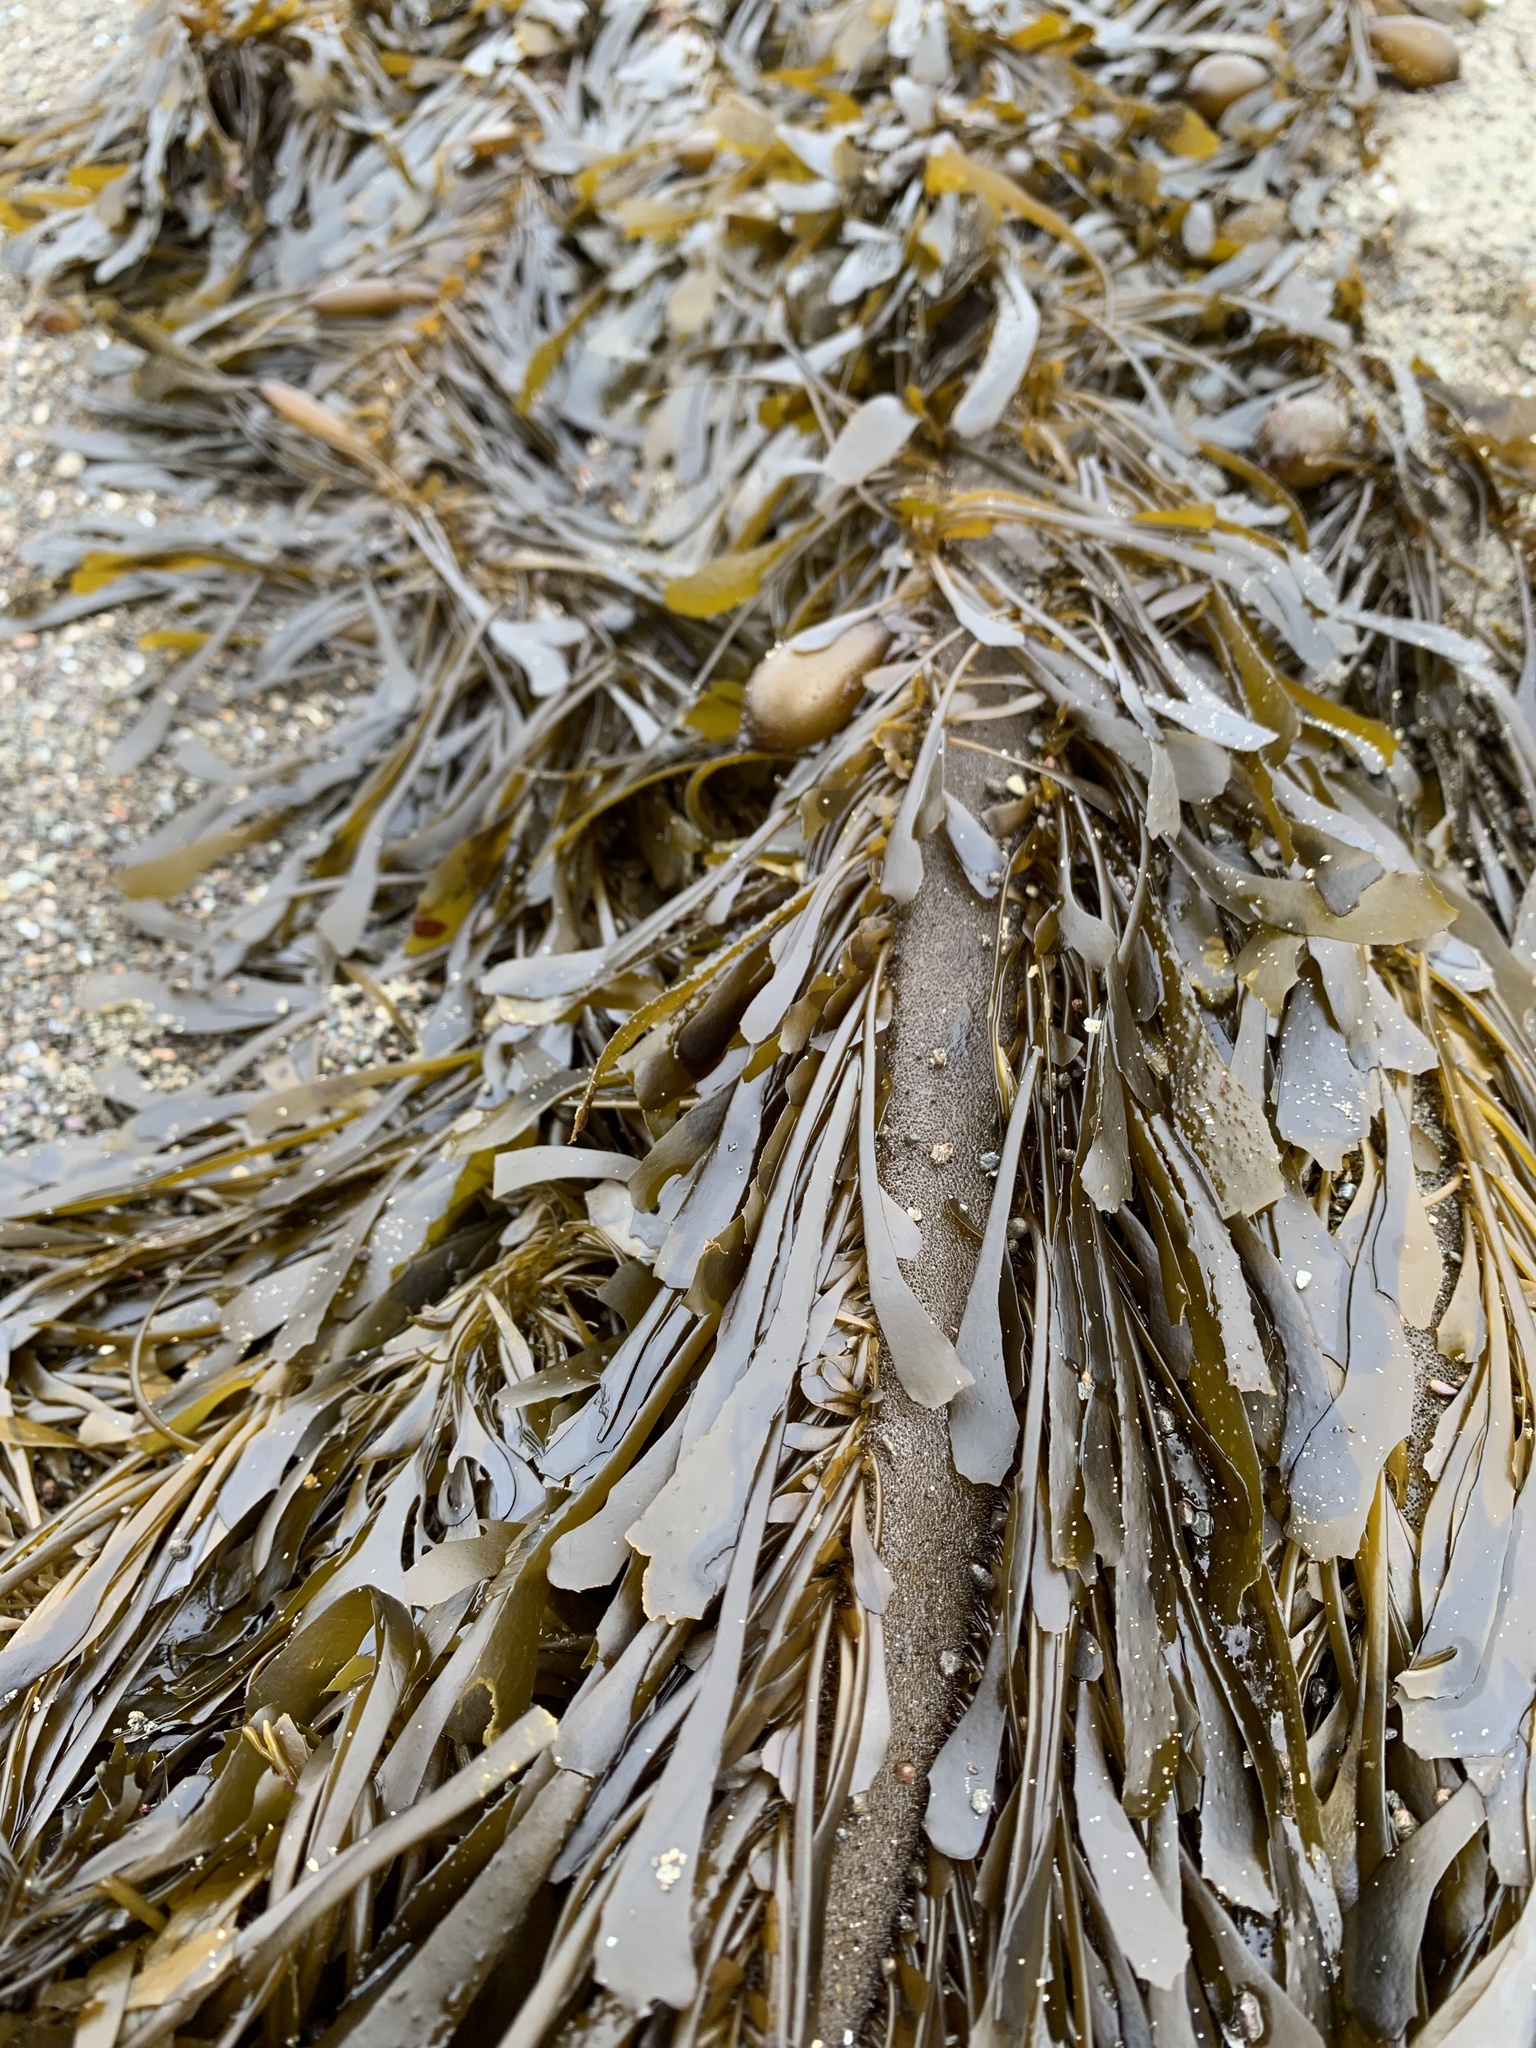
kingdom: Chromista
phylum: Ochrophyta
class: Phaeophyceae
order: Laminariales
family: Lessoniaceae
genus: Egregia
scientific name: Egregia menziesii
